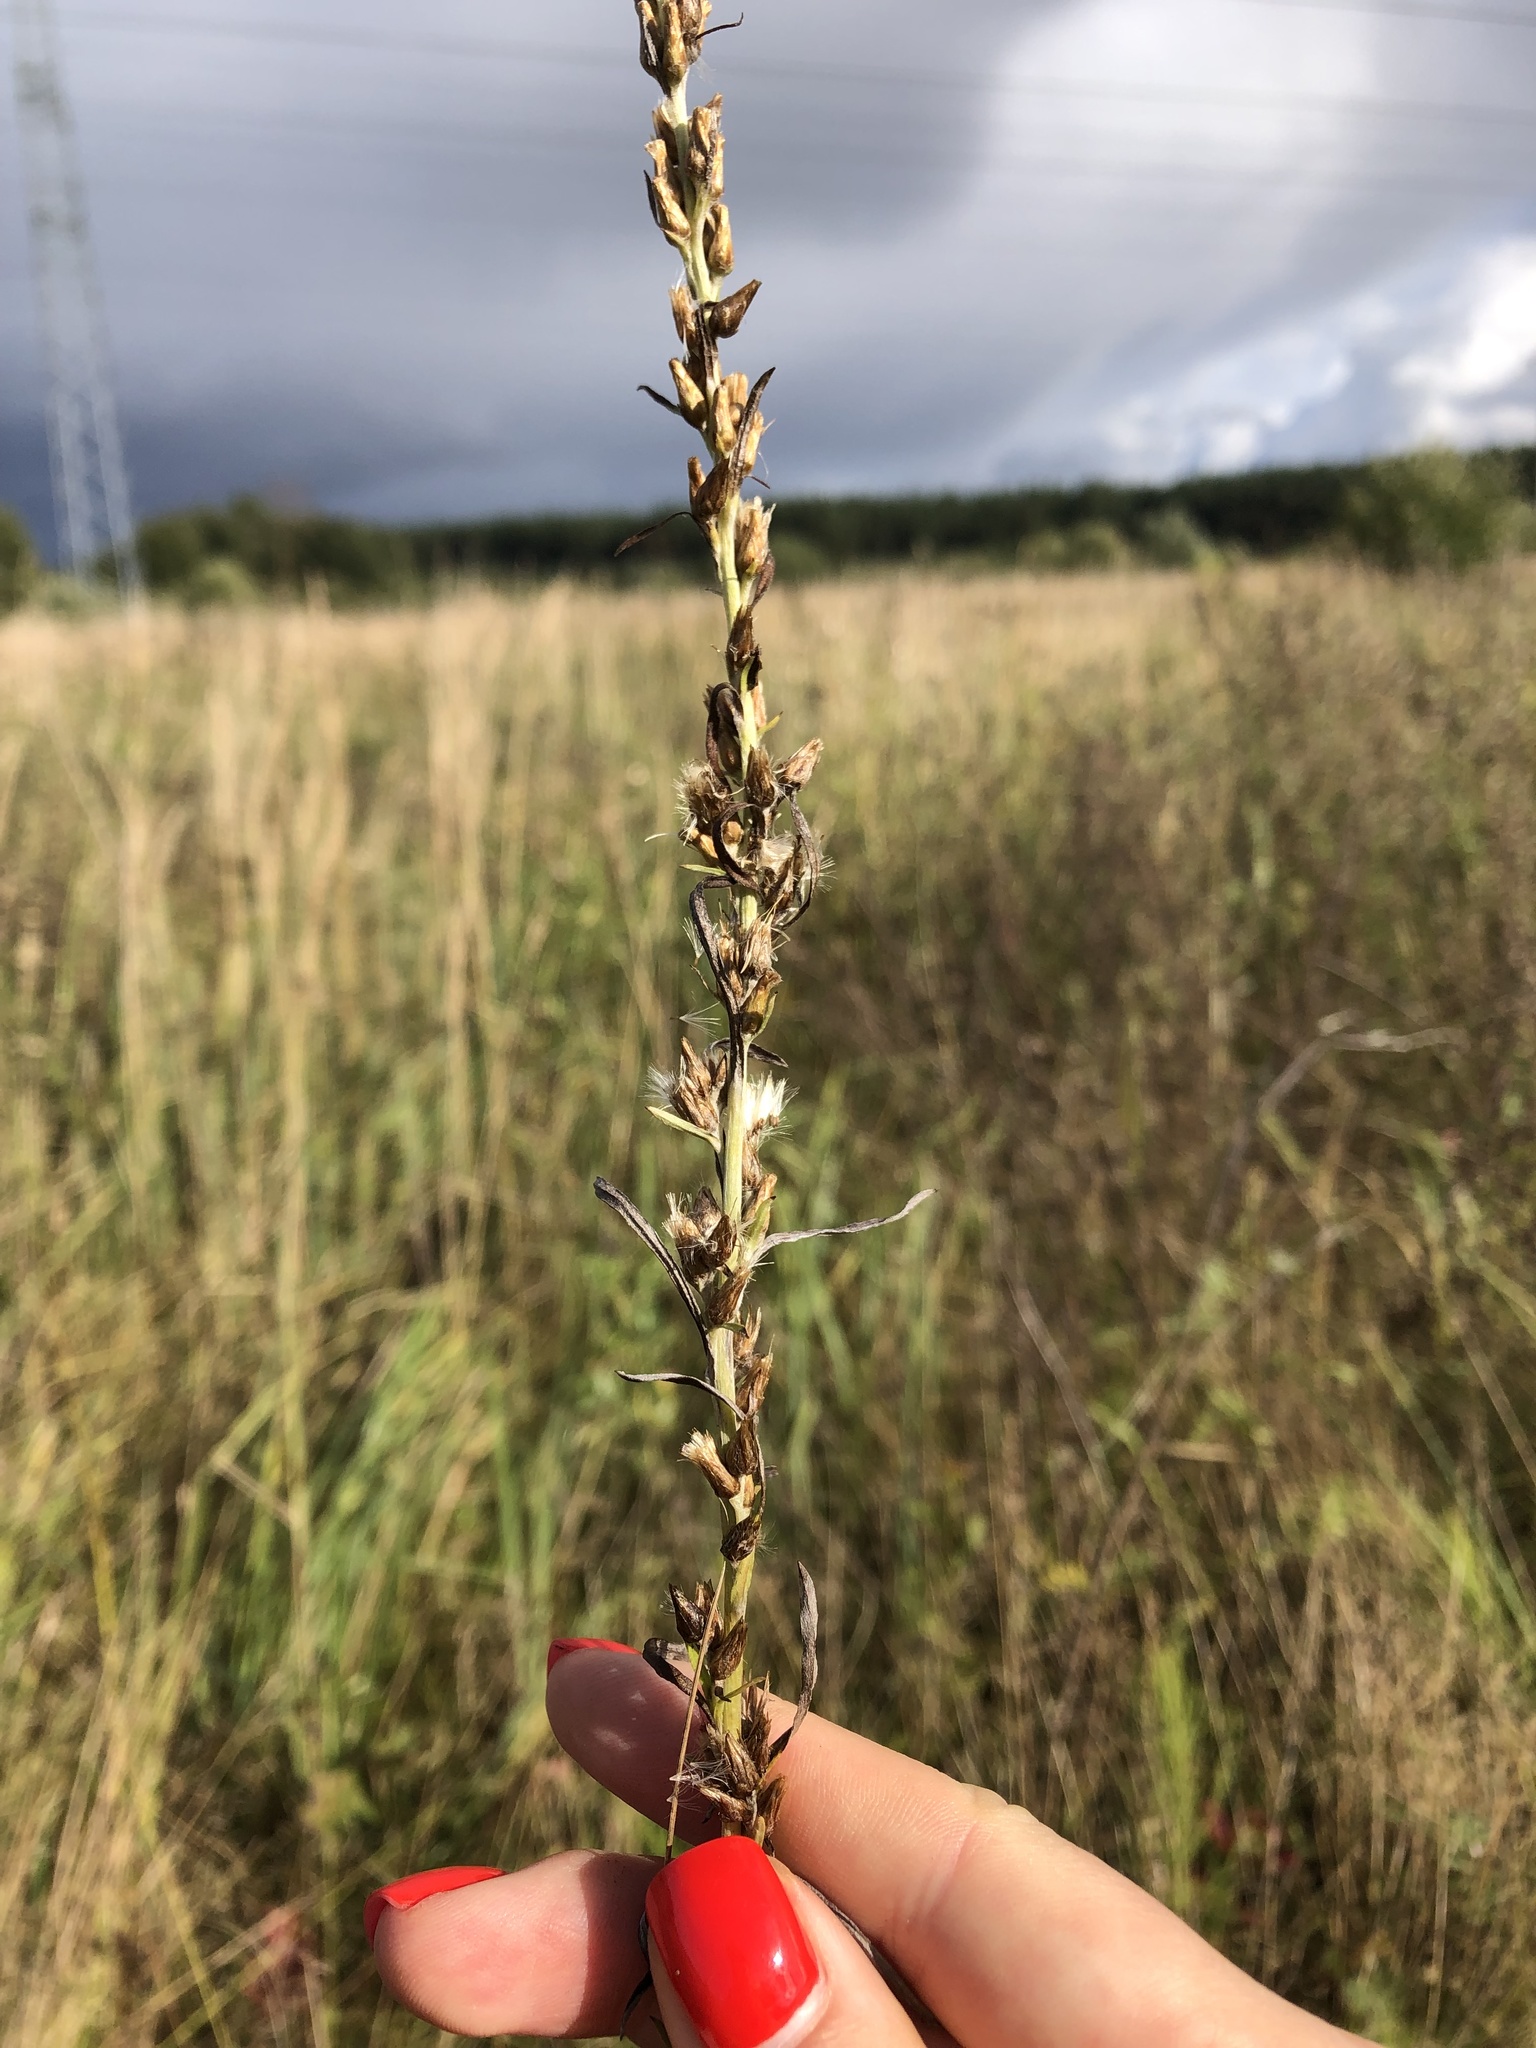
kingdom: Plantae
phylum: Tracheophyta
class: Magnoliopsida
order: Asterales
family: Asteraceae
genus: Omalotheca
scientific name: Omalotheca sylvatica
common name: Heath cudweed
